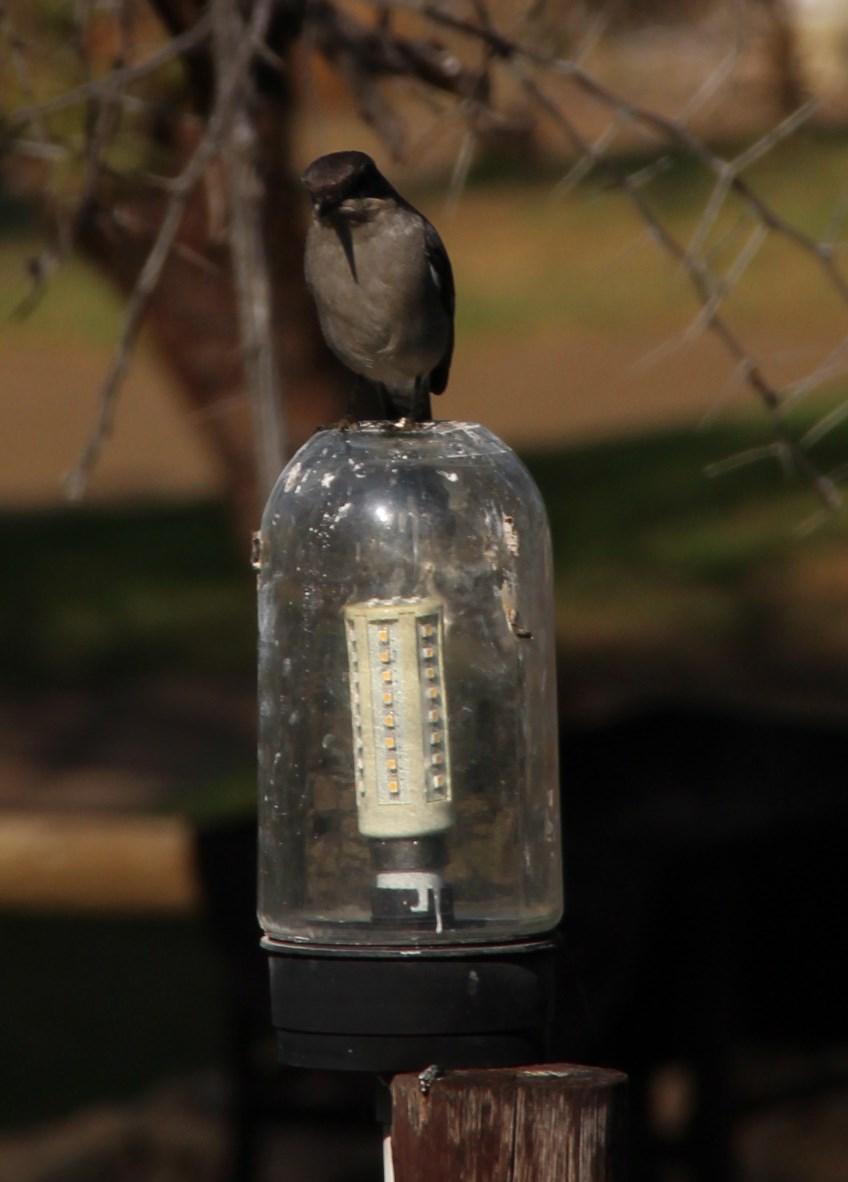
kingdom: Animalia
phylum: Chordata
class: Aves
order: Passeriformes
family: Muscicapidae
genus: Sigelus
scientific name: Sigelus silens
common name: Fiscal flycatcher
